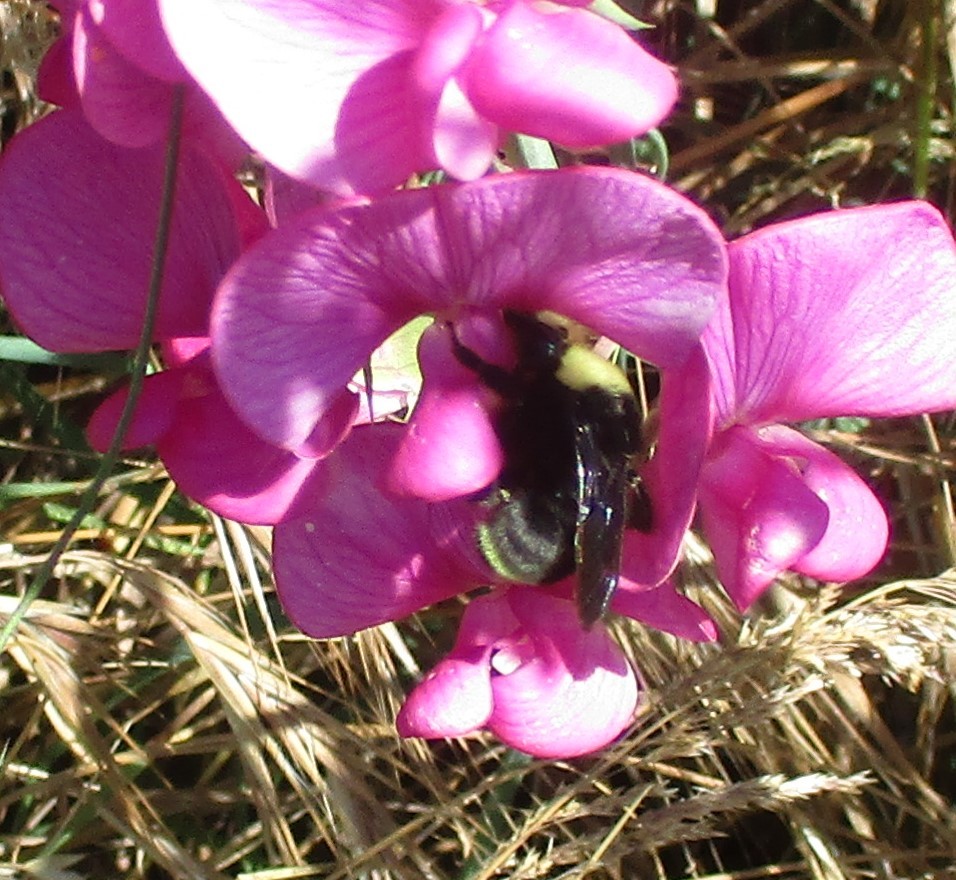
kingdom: Animalia
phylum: Arthropoda
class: Insecta
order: Hymenoptera
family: Apidae
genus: Bombus
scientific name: Bombus californicus
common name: California bumble bee
